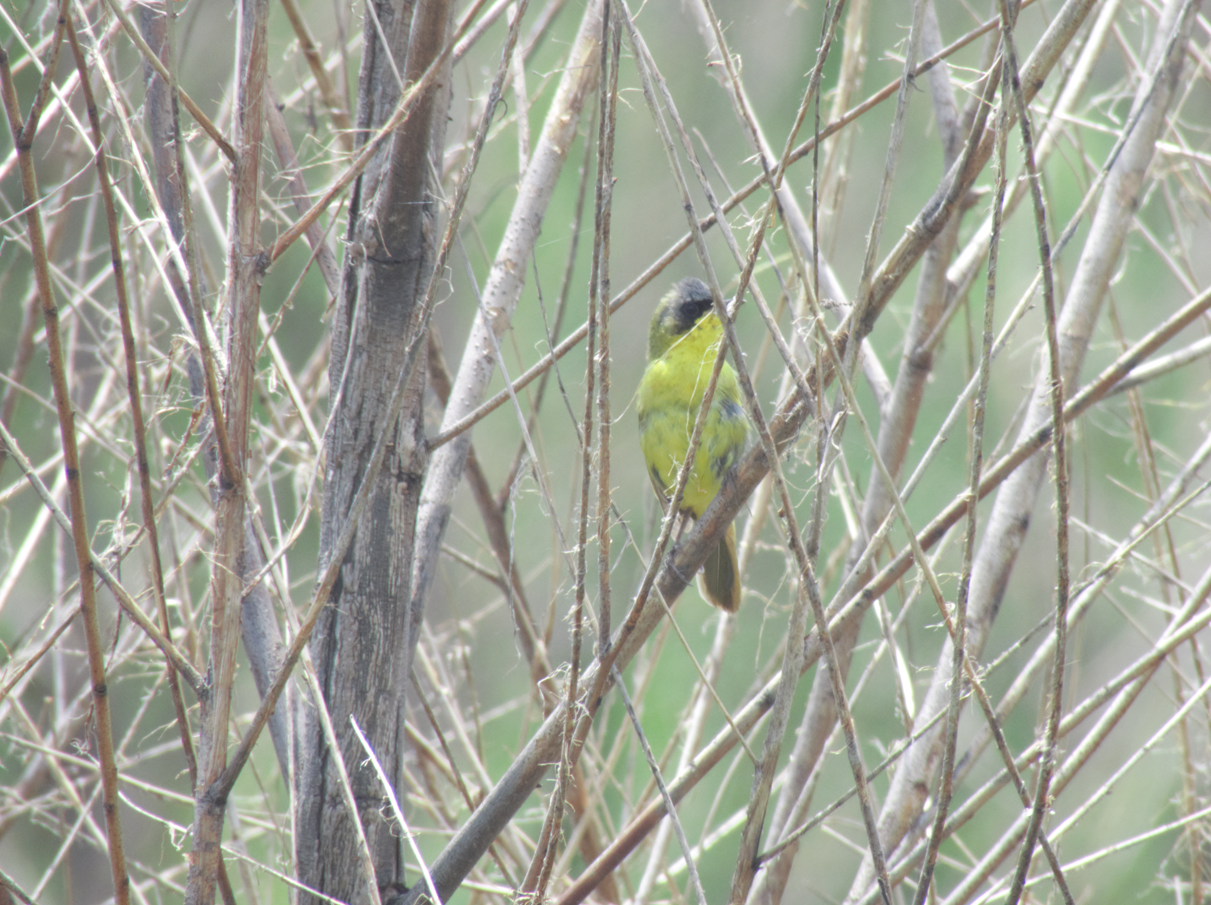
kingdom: Animalia
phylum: Chordata
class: Aves
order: Passeriformes
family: Parulidae
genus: Geothlypis
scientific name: Geothlypis velata
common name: Southern yellowthroat
